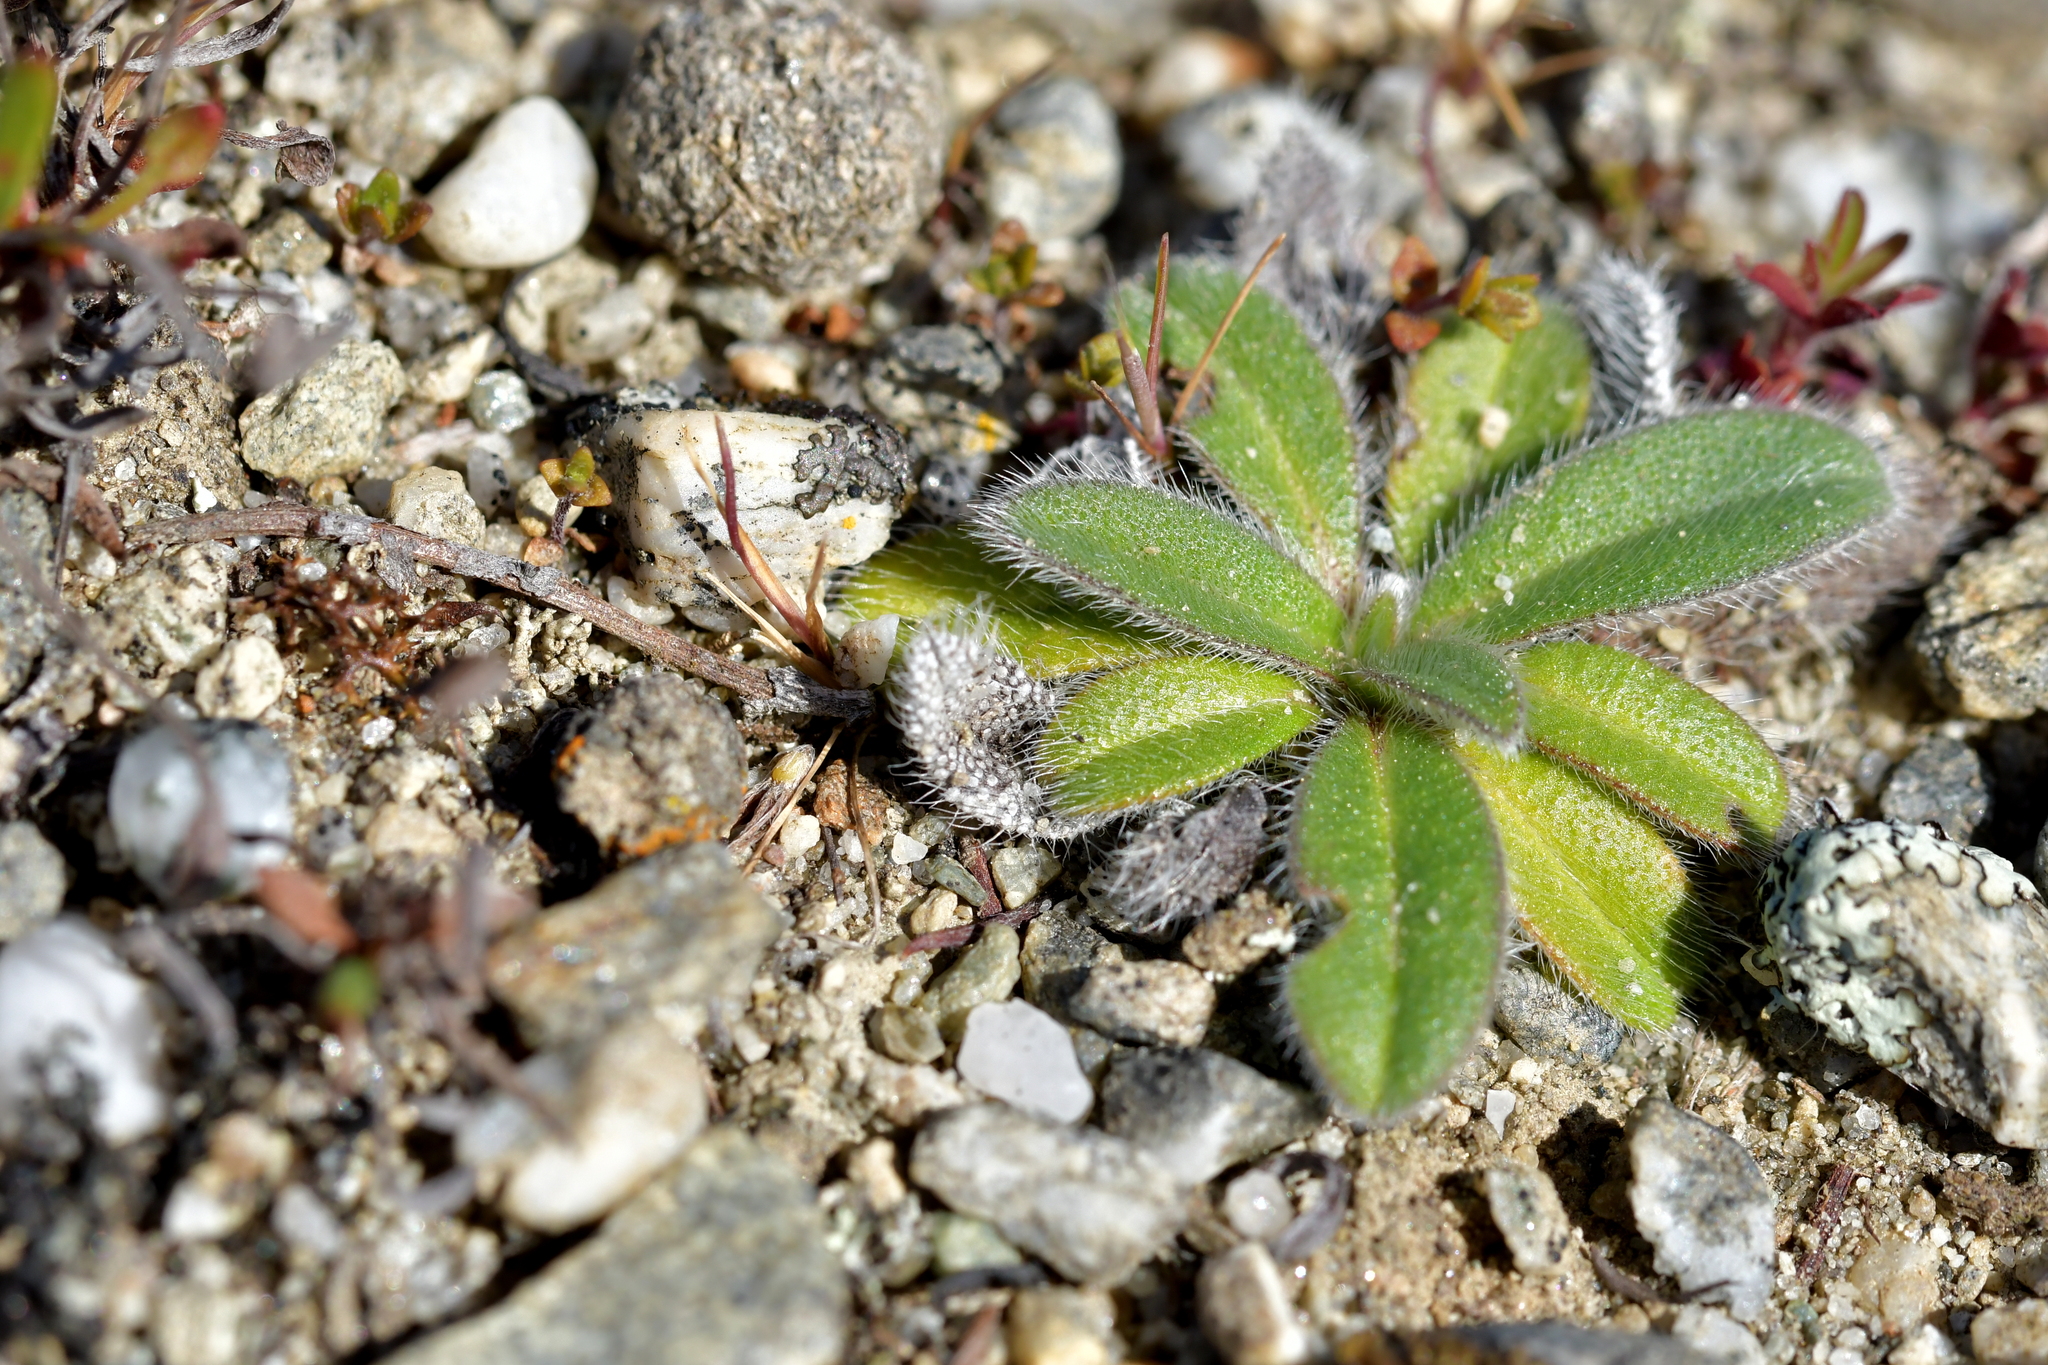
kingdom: Plantae
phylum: Tracheophyta
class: Magnoliopsida
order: Boraginales
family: Boraginaceae
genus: Echium
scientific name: Echium vulgare
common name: Common viper's bugloss
